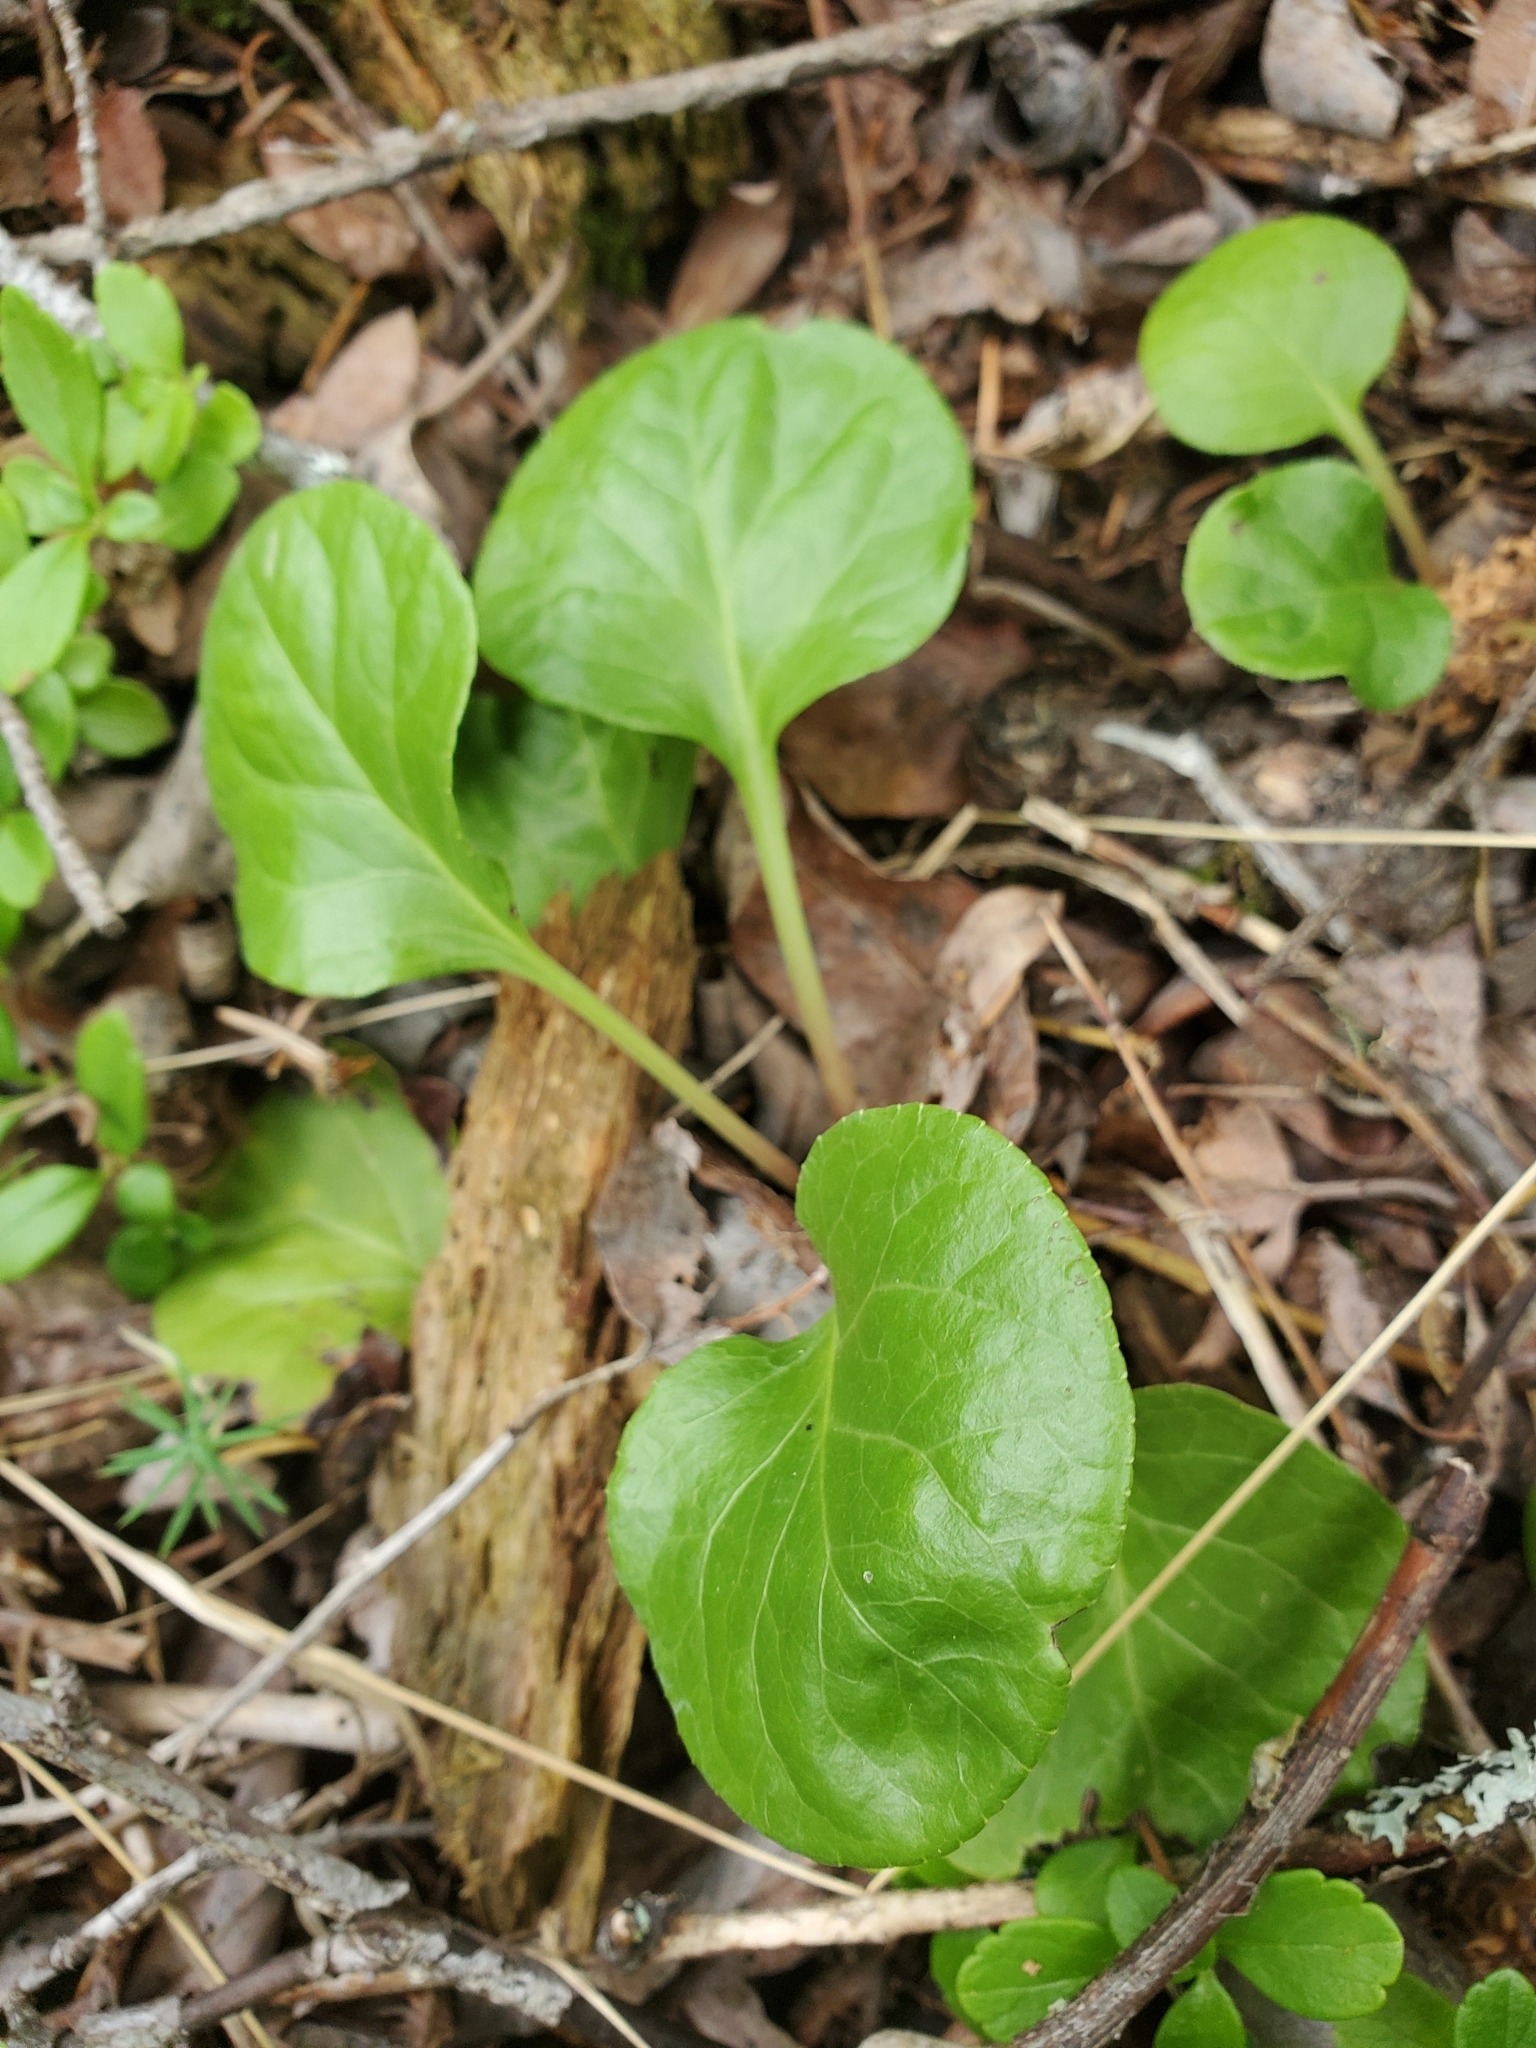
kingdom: Plantae
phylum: Tracheophyta
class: Magnoliopsida
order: Ericales
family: Ericaceae
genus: Pyrola
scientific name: Pyrola asarifolia
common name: Bog wintergreen
